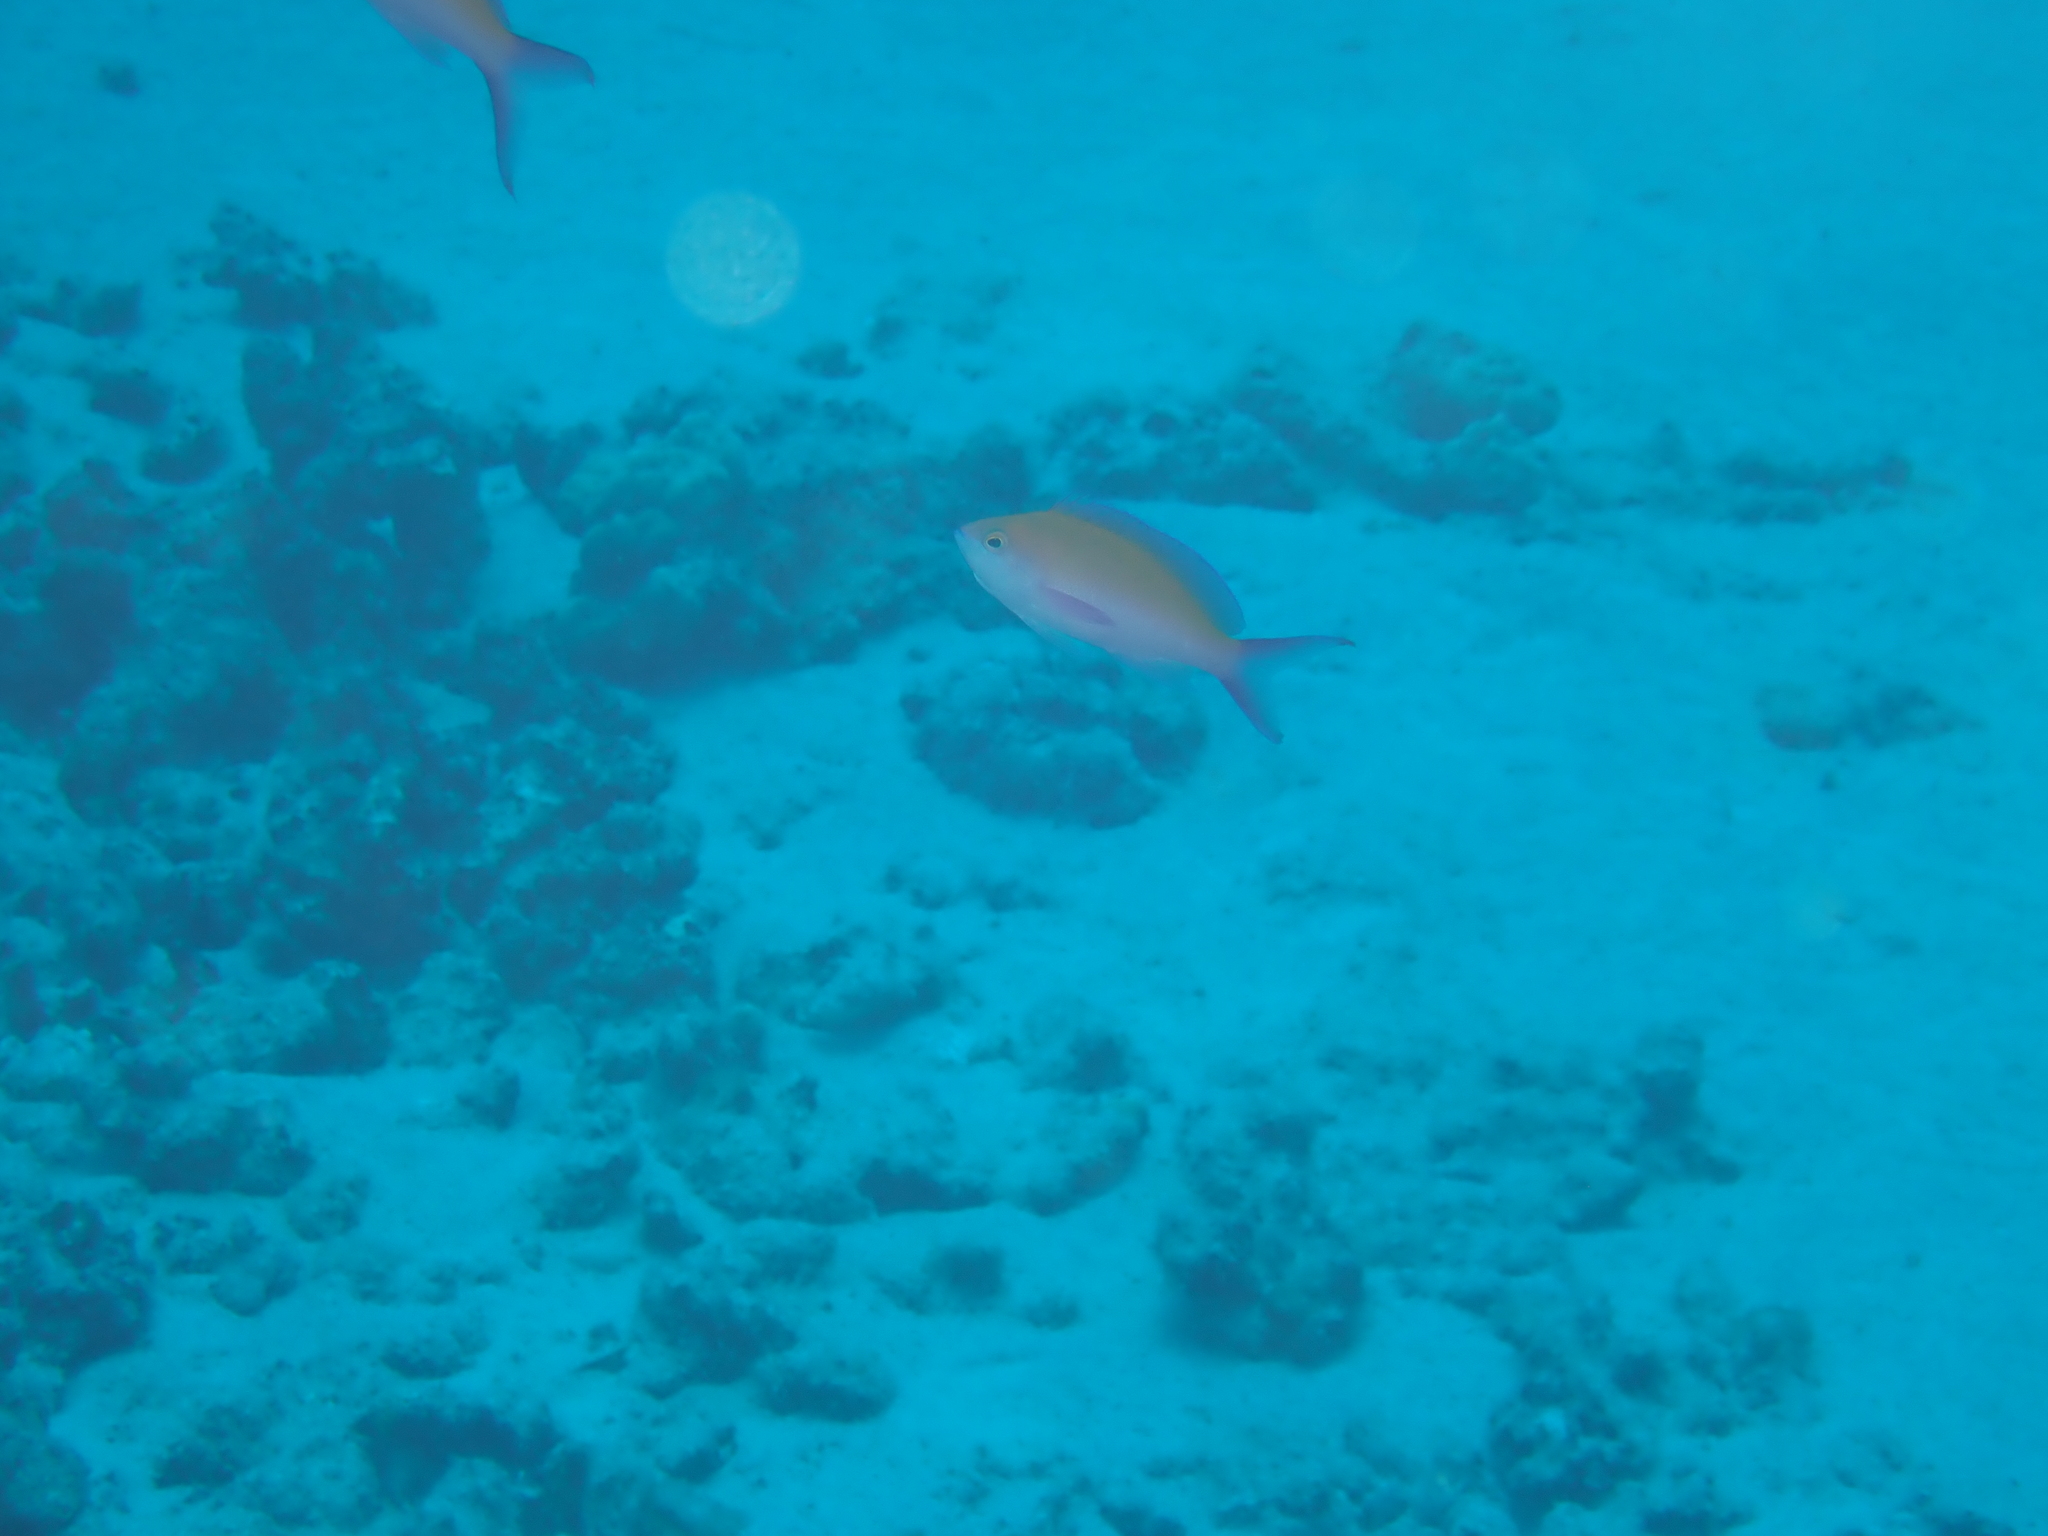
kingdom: Animalia
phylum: Chordata
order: Perciformes
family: Serranidae
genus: Nemanthias
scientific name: Nemanthias
